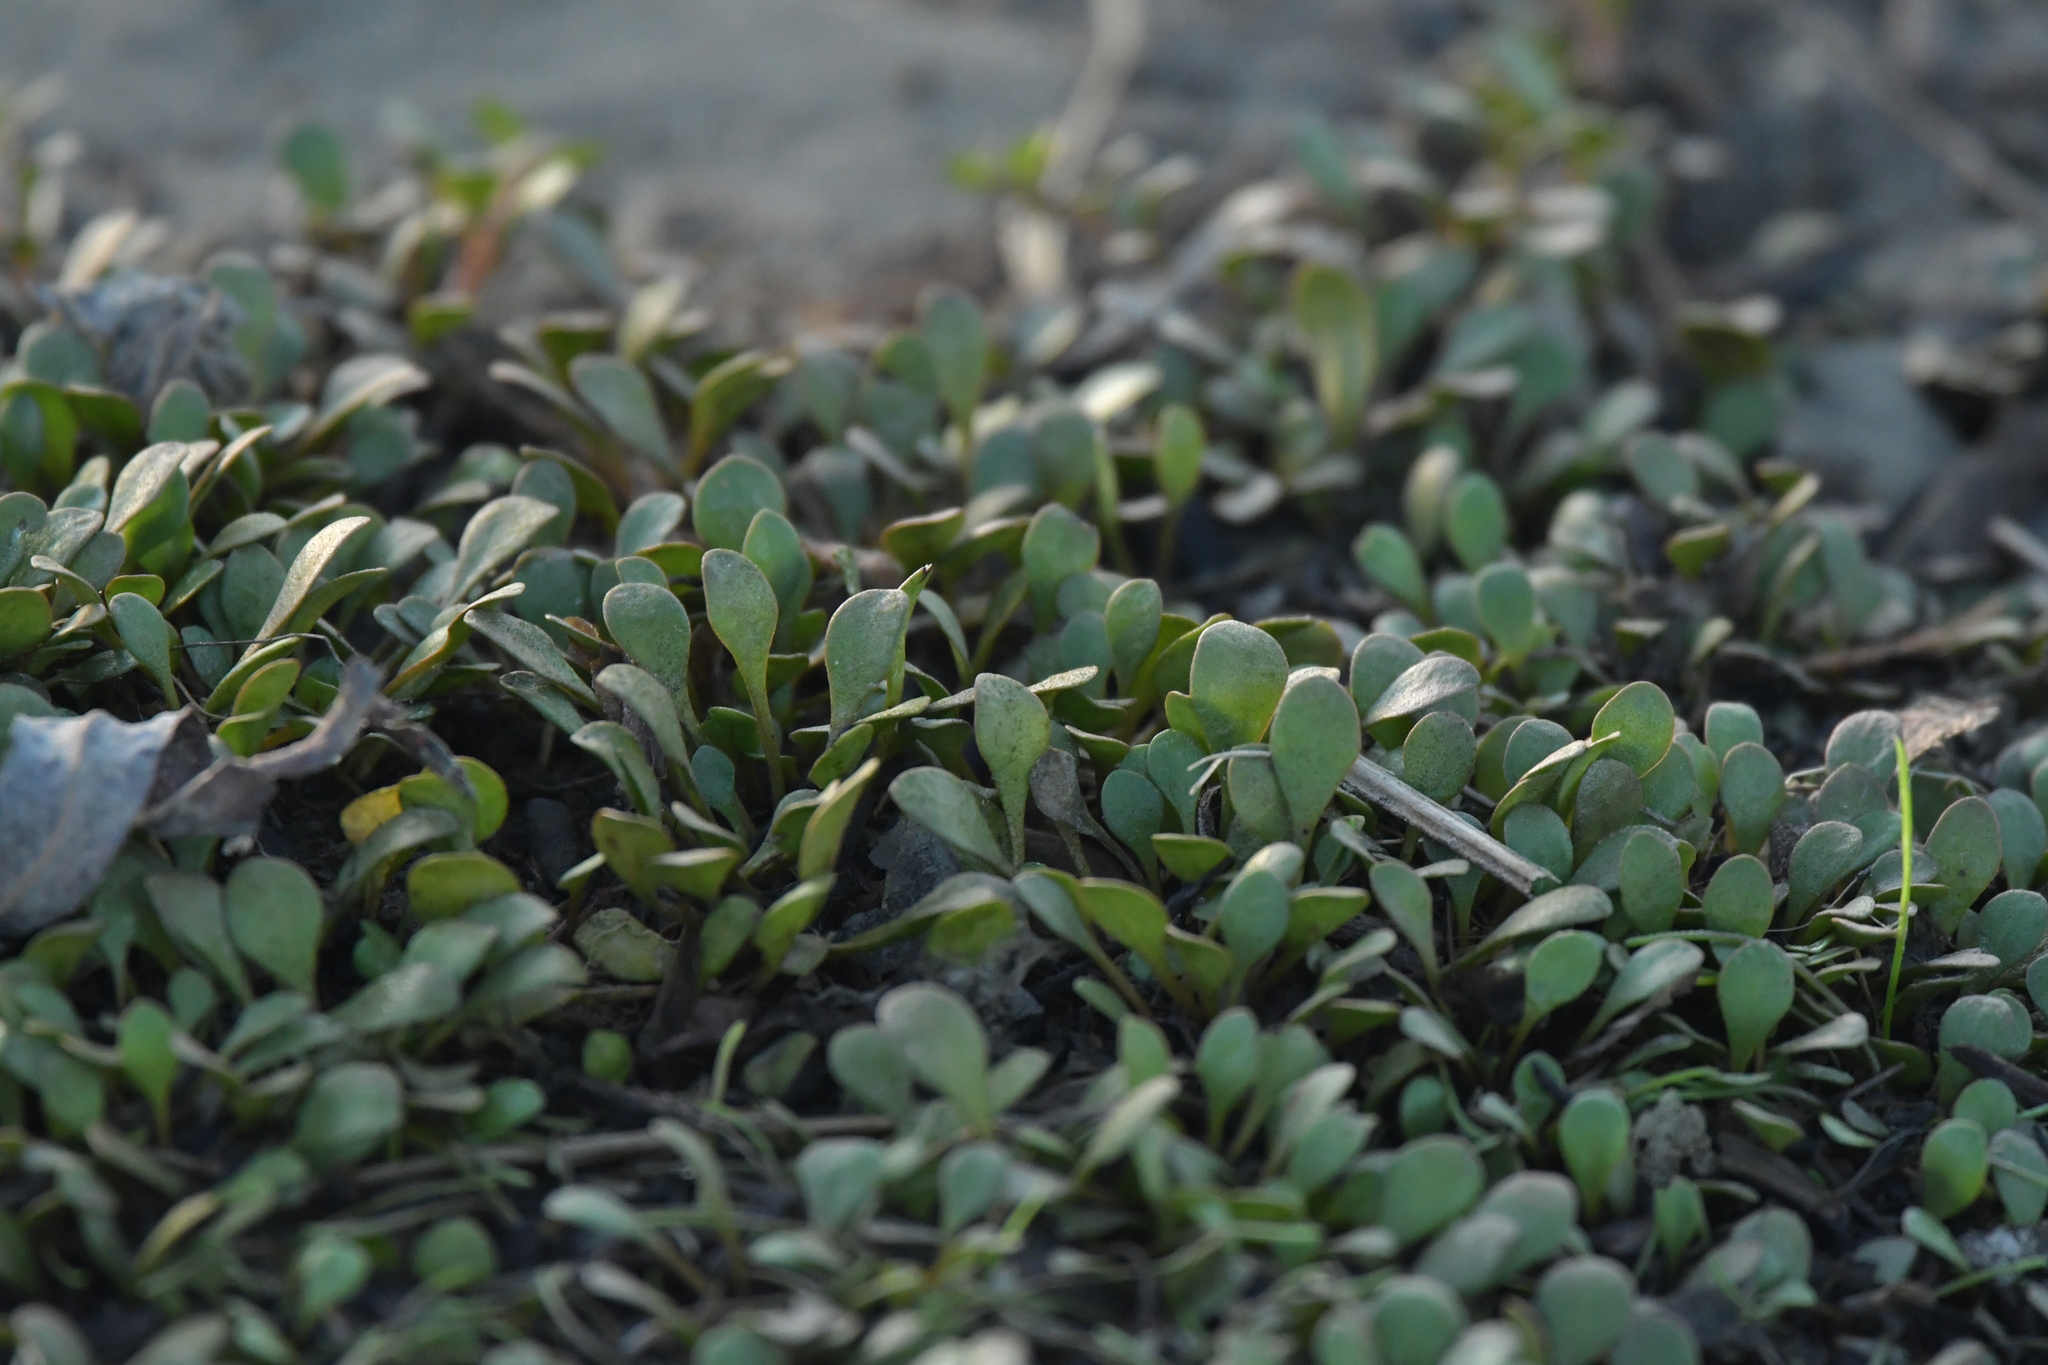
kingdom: Plantae
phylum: Tracheophyta
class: Magnoliopsida
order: Asterales
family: Goodeniaceae
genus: Goodenia
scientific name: Goodenia radicans
